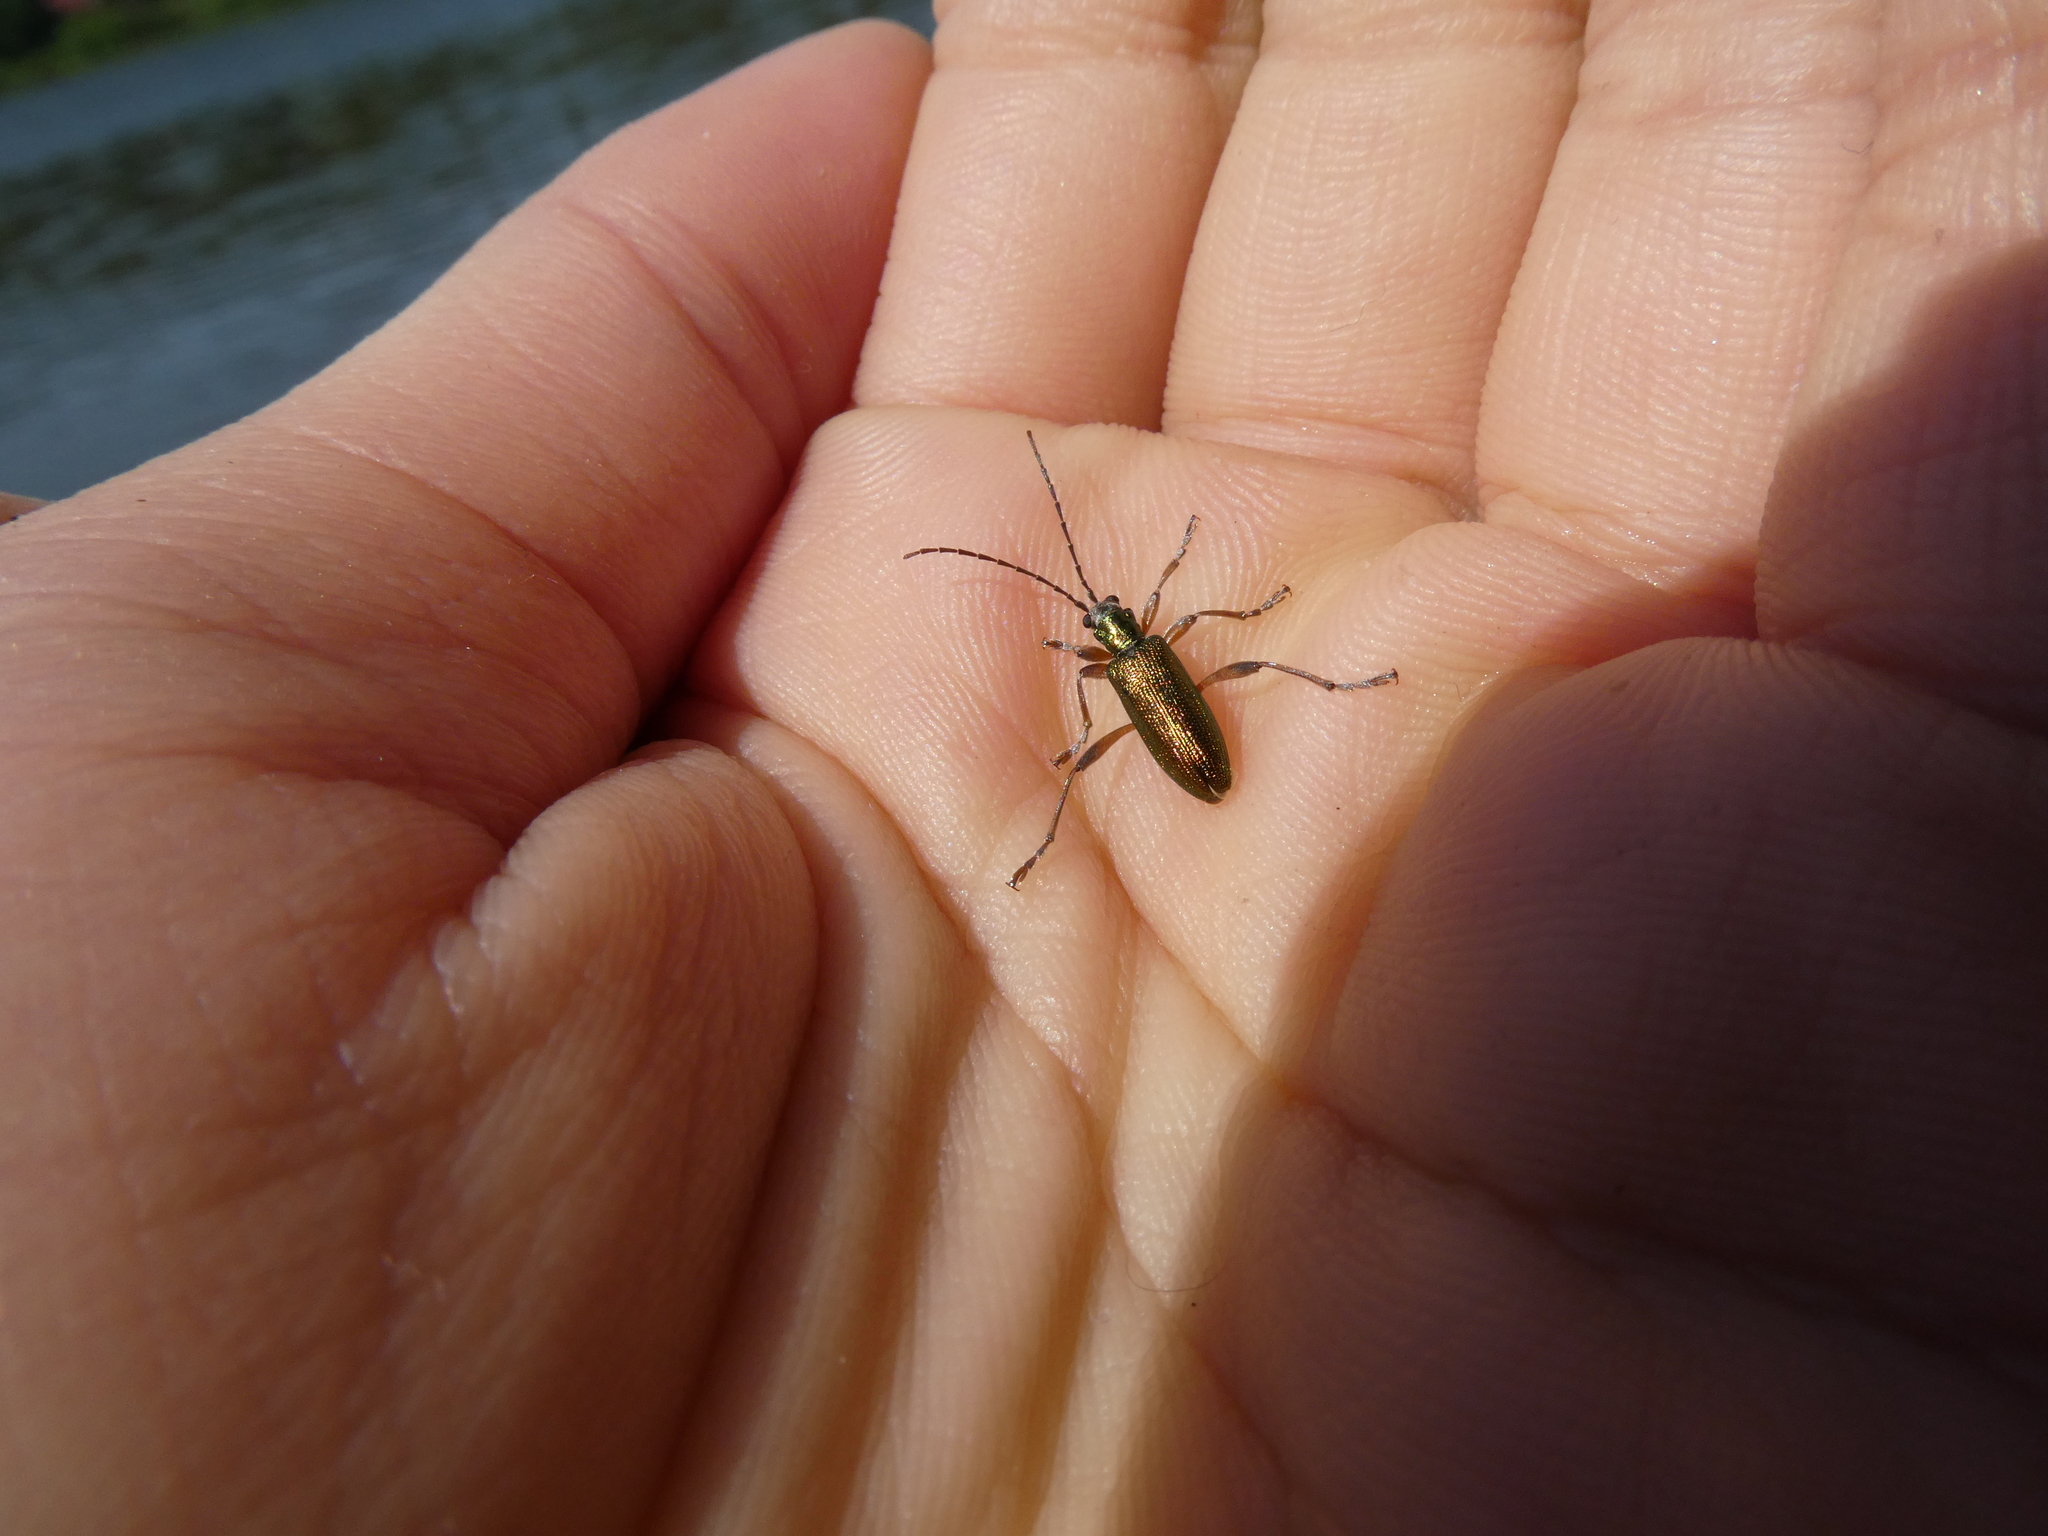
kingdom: Animalia
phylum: Arthropoda
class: Insecta
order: Coleoptera
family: Chrysomelidae
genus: Donacia
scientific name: Donacia clavipes
